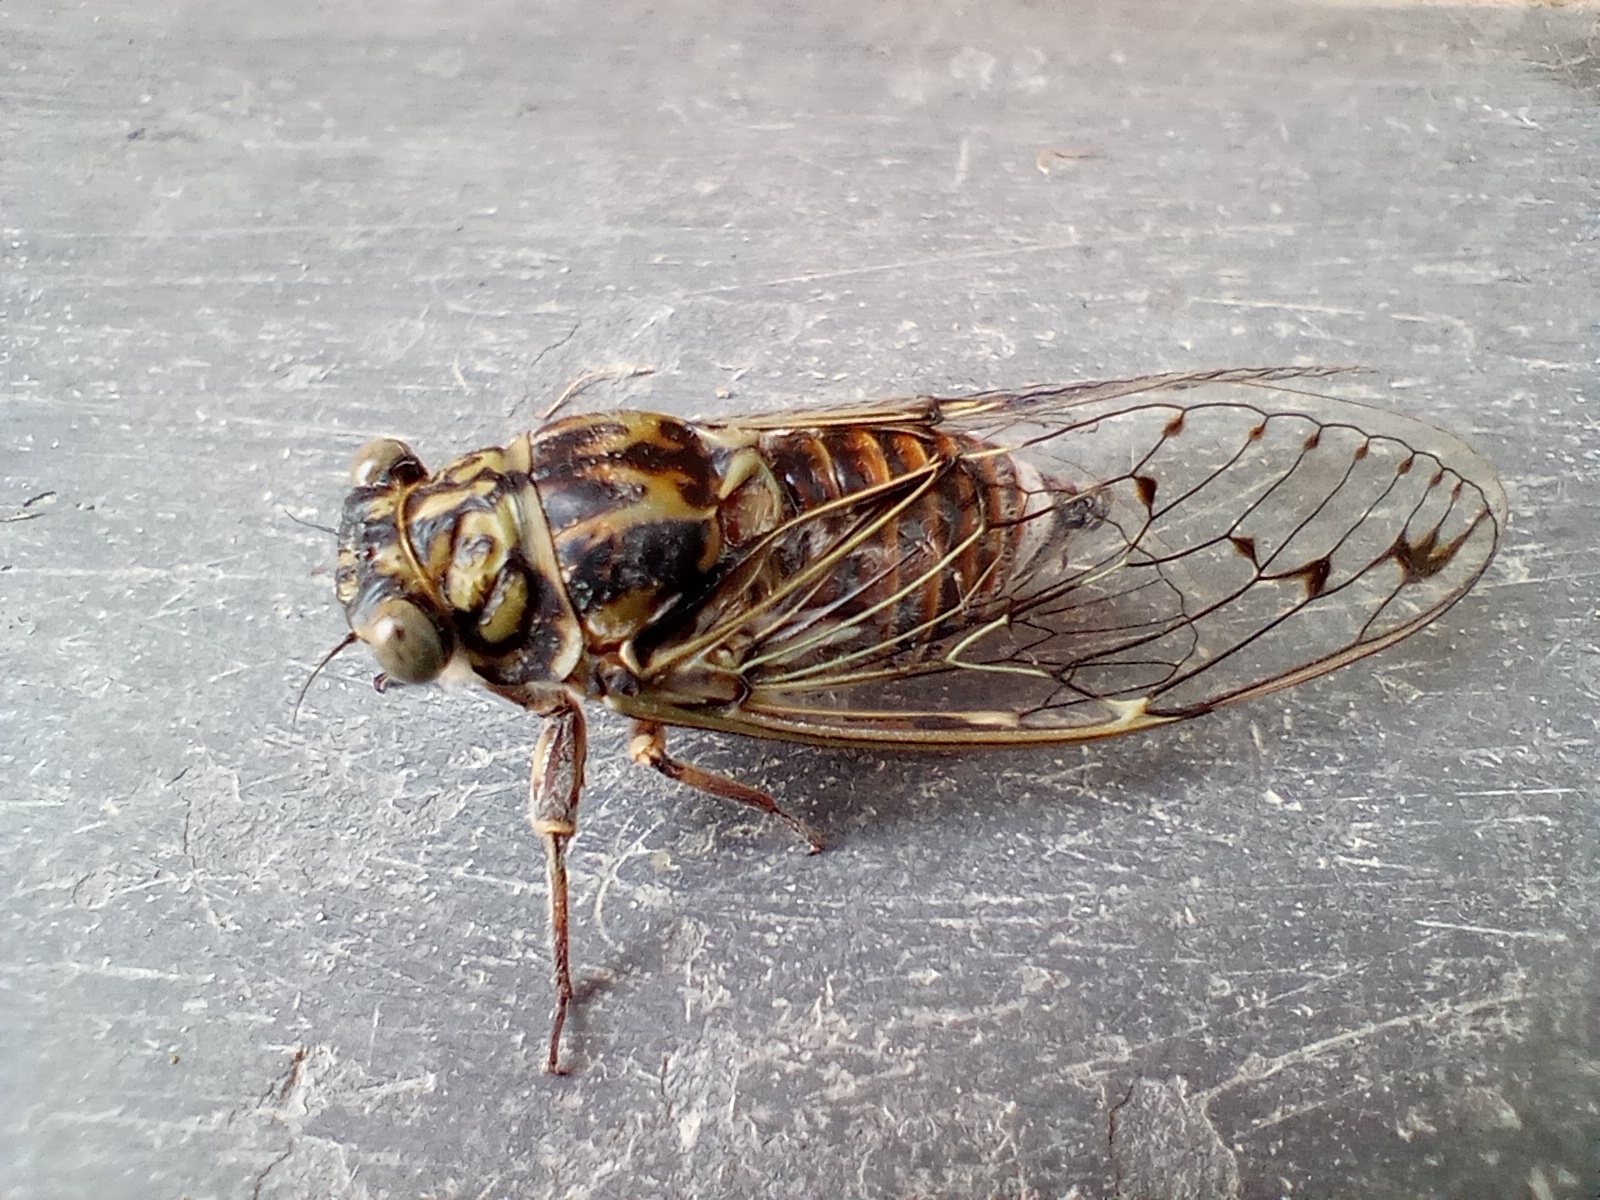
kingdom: Animalia
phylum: Arthropoda
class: Insecta
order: Hemiptera
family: Cicadidae
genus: Cicada
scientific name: Cicada orni
